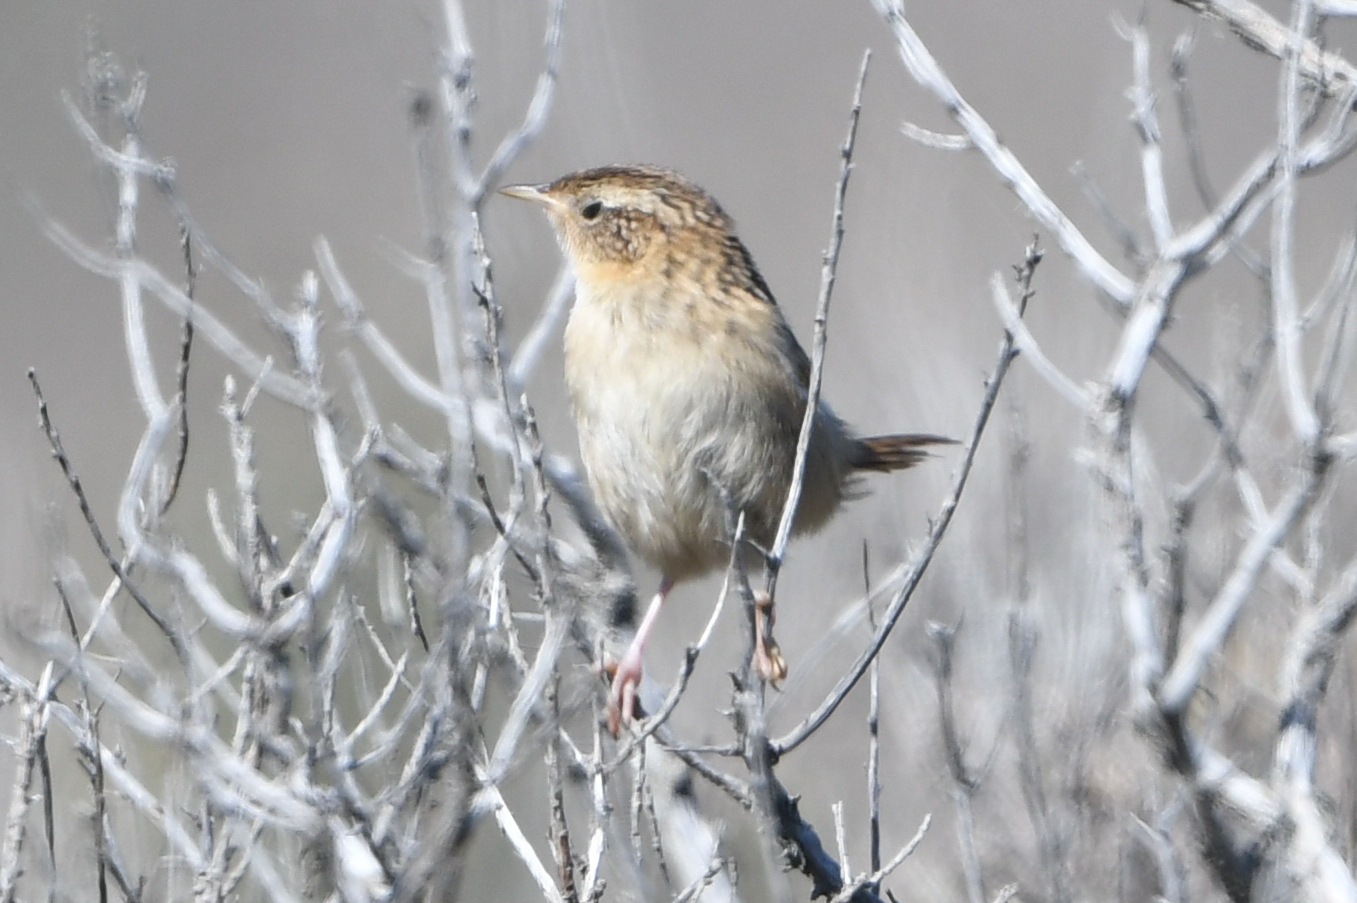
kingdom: Animalia
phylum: Chordata
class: Aves
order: Passeriformes
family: Troglodytidae
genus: Cistothorus
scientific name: Cistothorus platensis
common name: Sedge wren
